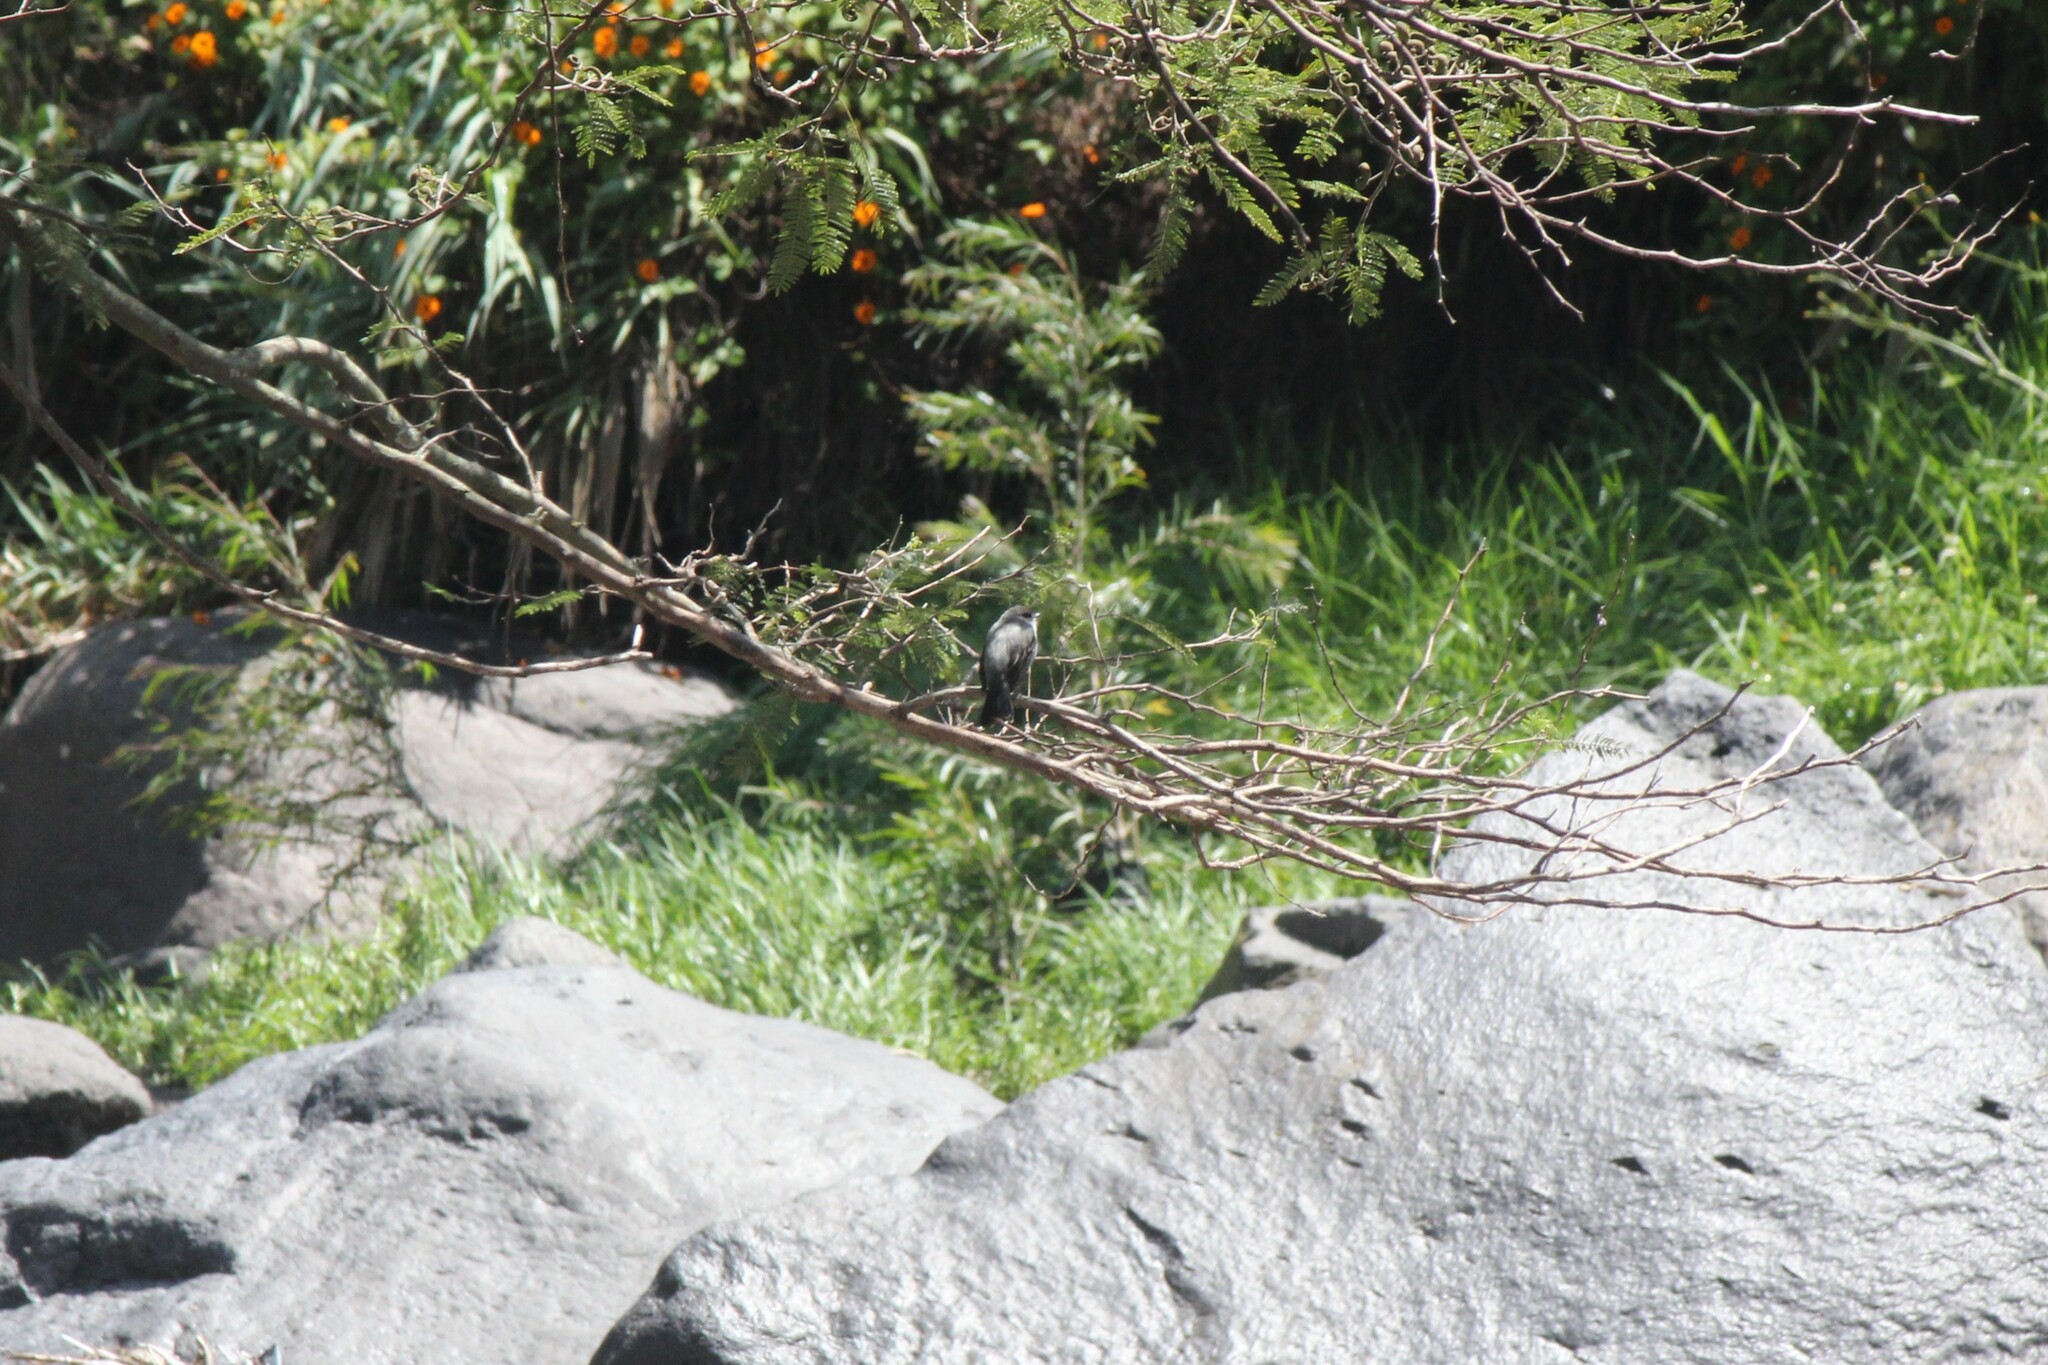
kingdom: Animalia
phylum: Chordata
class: Aves
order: Passeriformes
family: Tyrannidae
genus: Serpophaga
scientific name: Serpophaga cinerea
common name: Torrent tyrannulet
